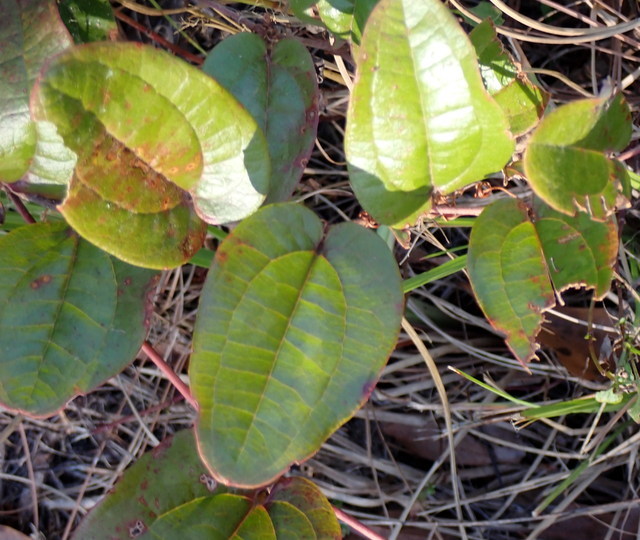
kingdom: Plantae
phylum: Tracheophyta
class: Liliopsida
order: Liliales
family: Smilacaceae
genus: Smilax
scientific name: Smilax pumila
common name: Sarsaparilla-vine
